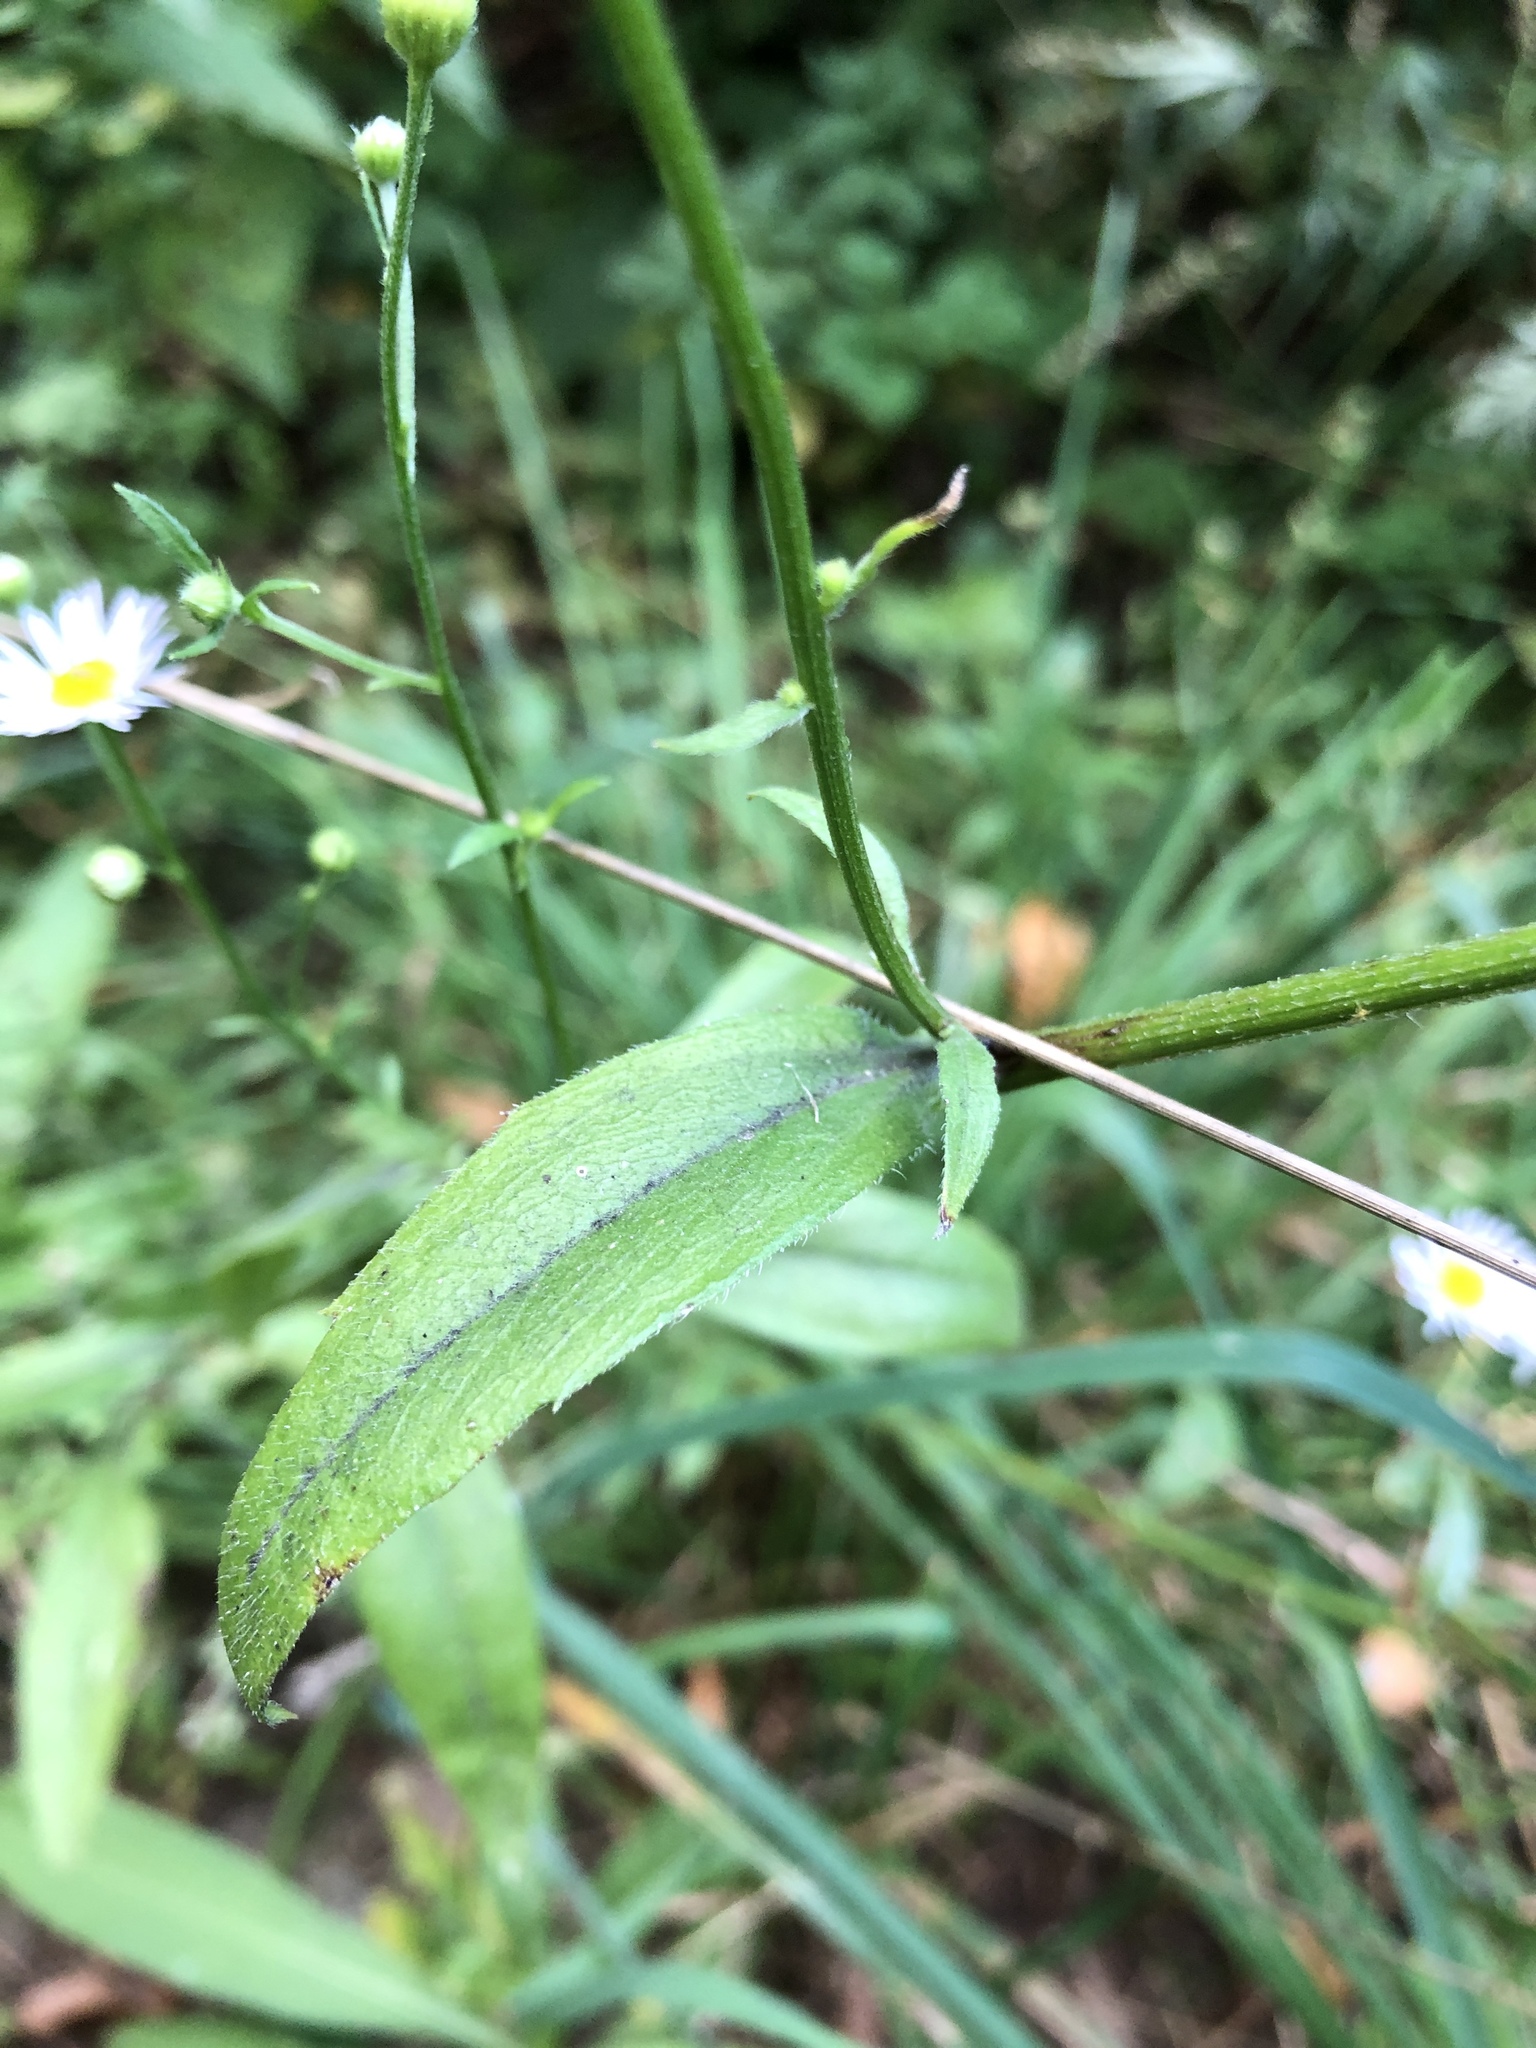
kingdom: Plantae
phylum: Tracheophyta
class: Magnoliopsida
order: Asterales
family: Asteraceae
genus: Erigeron
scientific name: Erigeron annuus
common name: Tall fleabane
